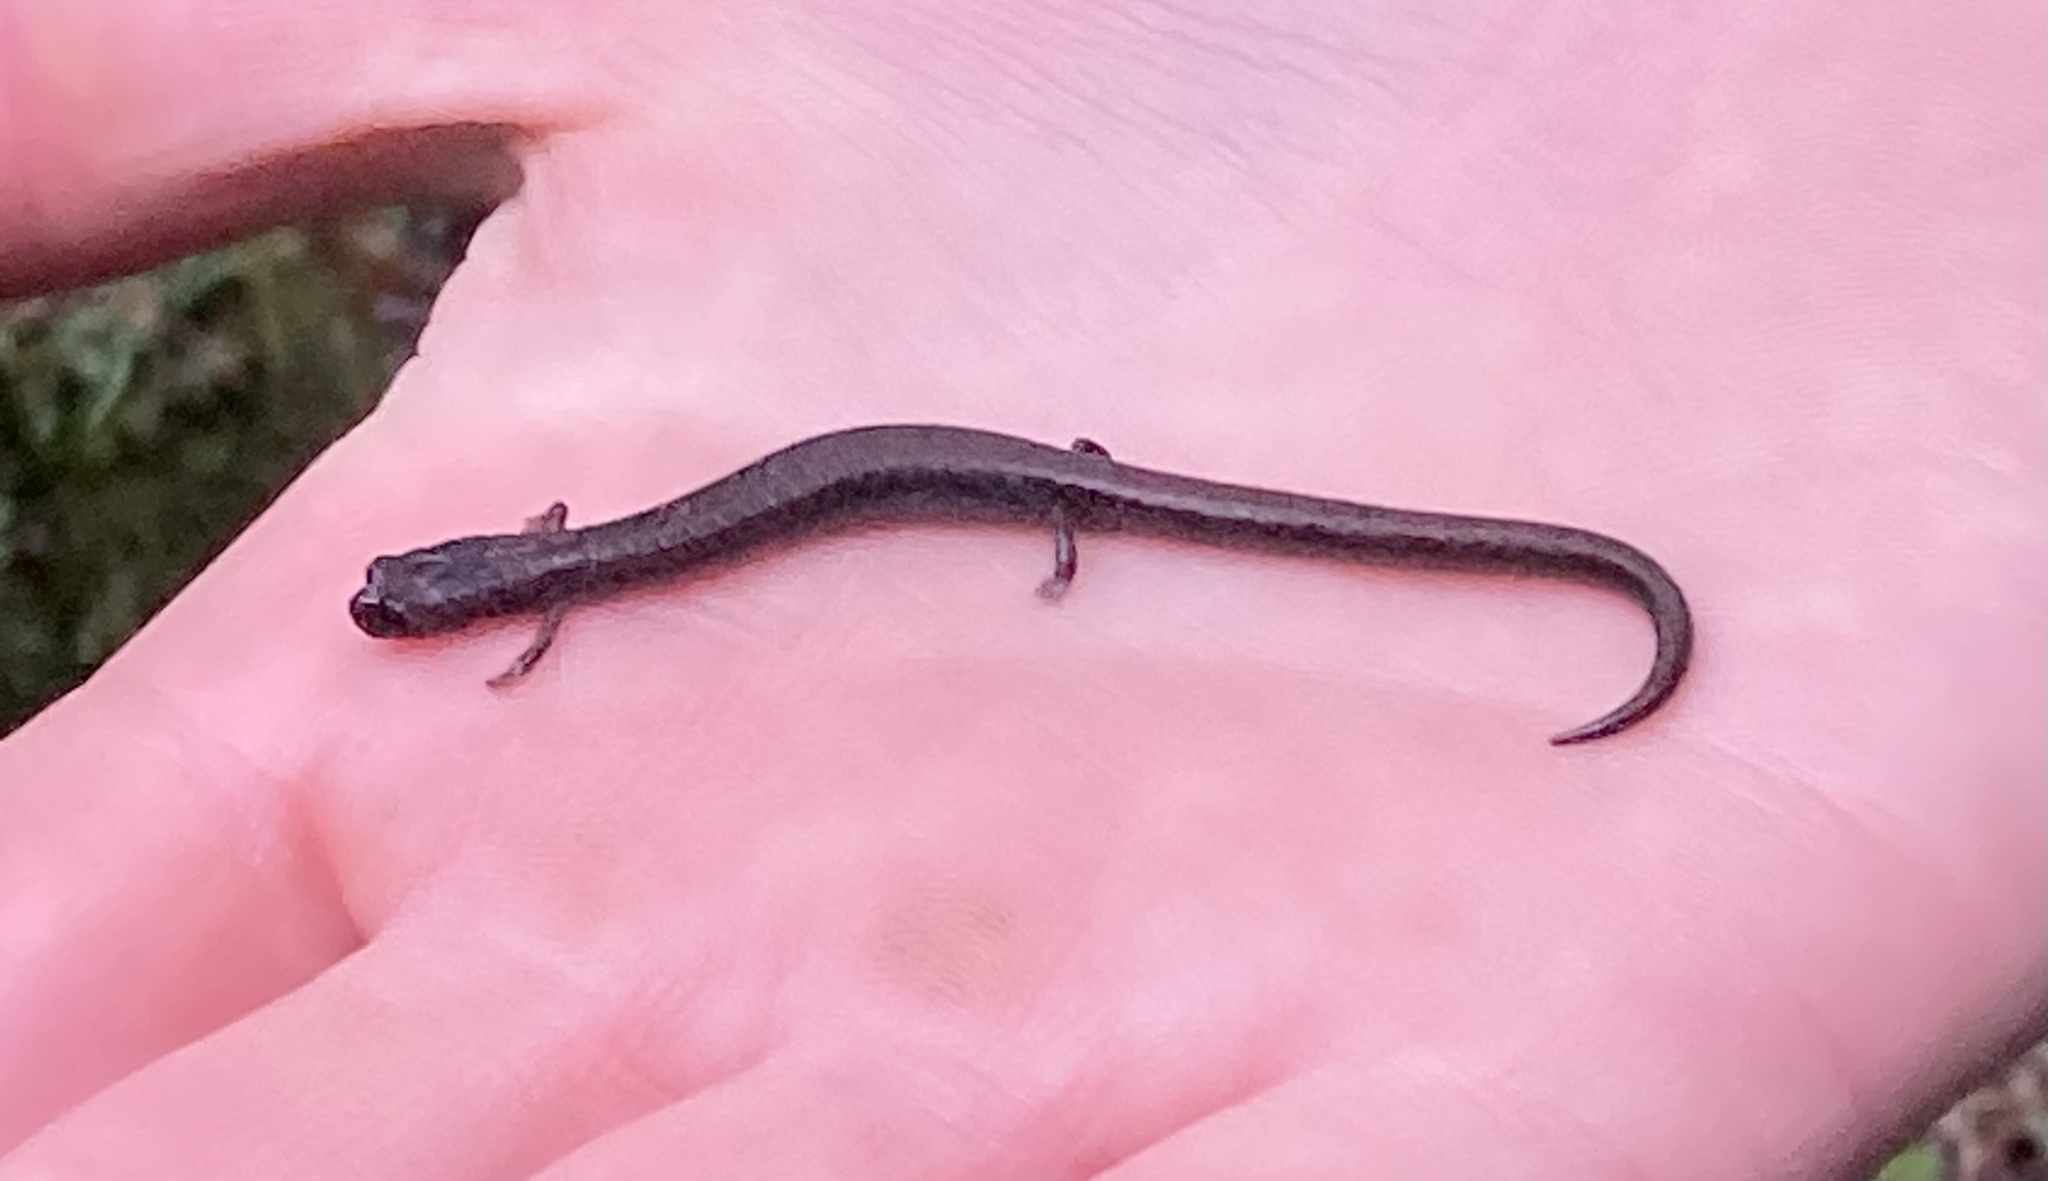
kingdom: Animalia
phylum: Chordata
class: Amphibia
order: Caudata
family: Plethodontidae
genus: Batrachoseps
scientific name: Batrachoseps attenuatus
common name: California slender salamander
